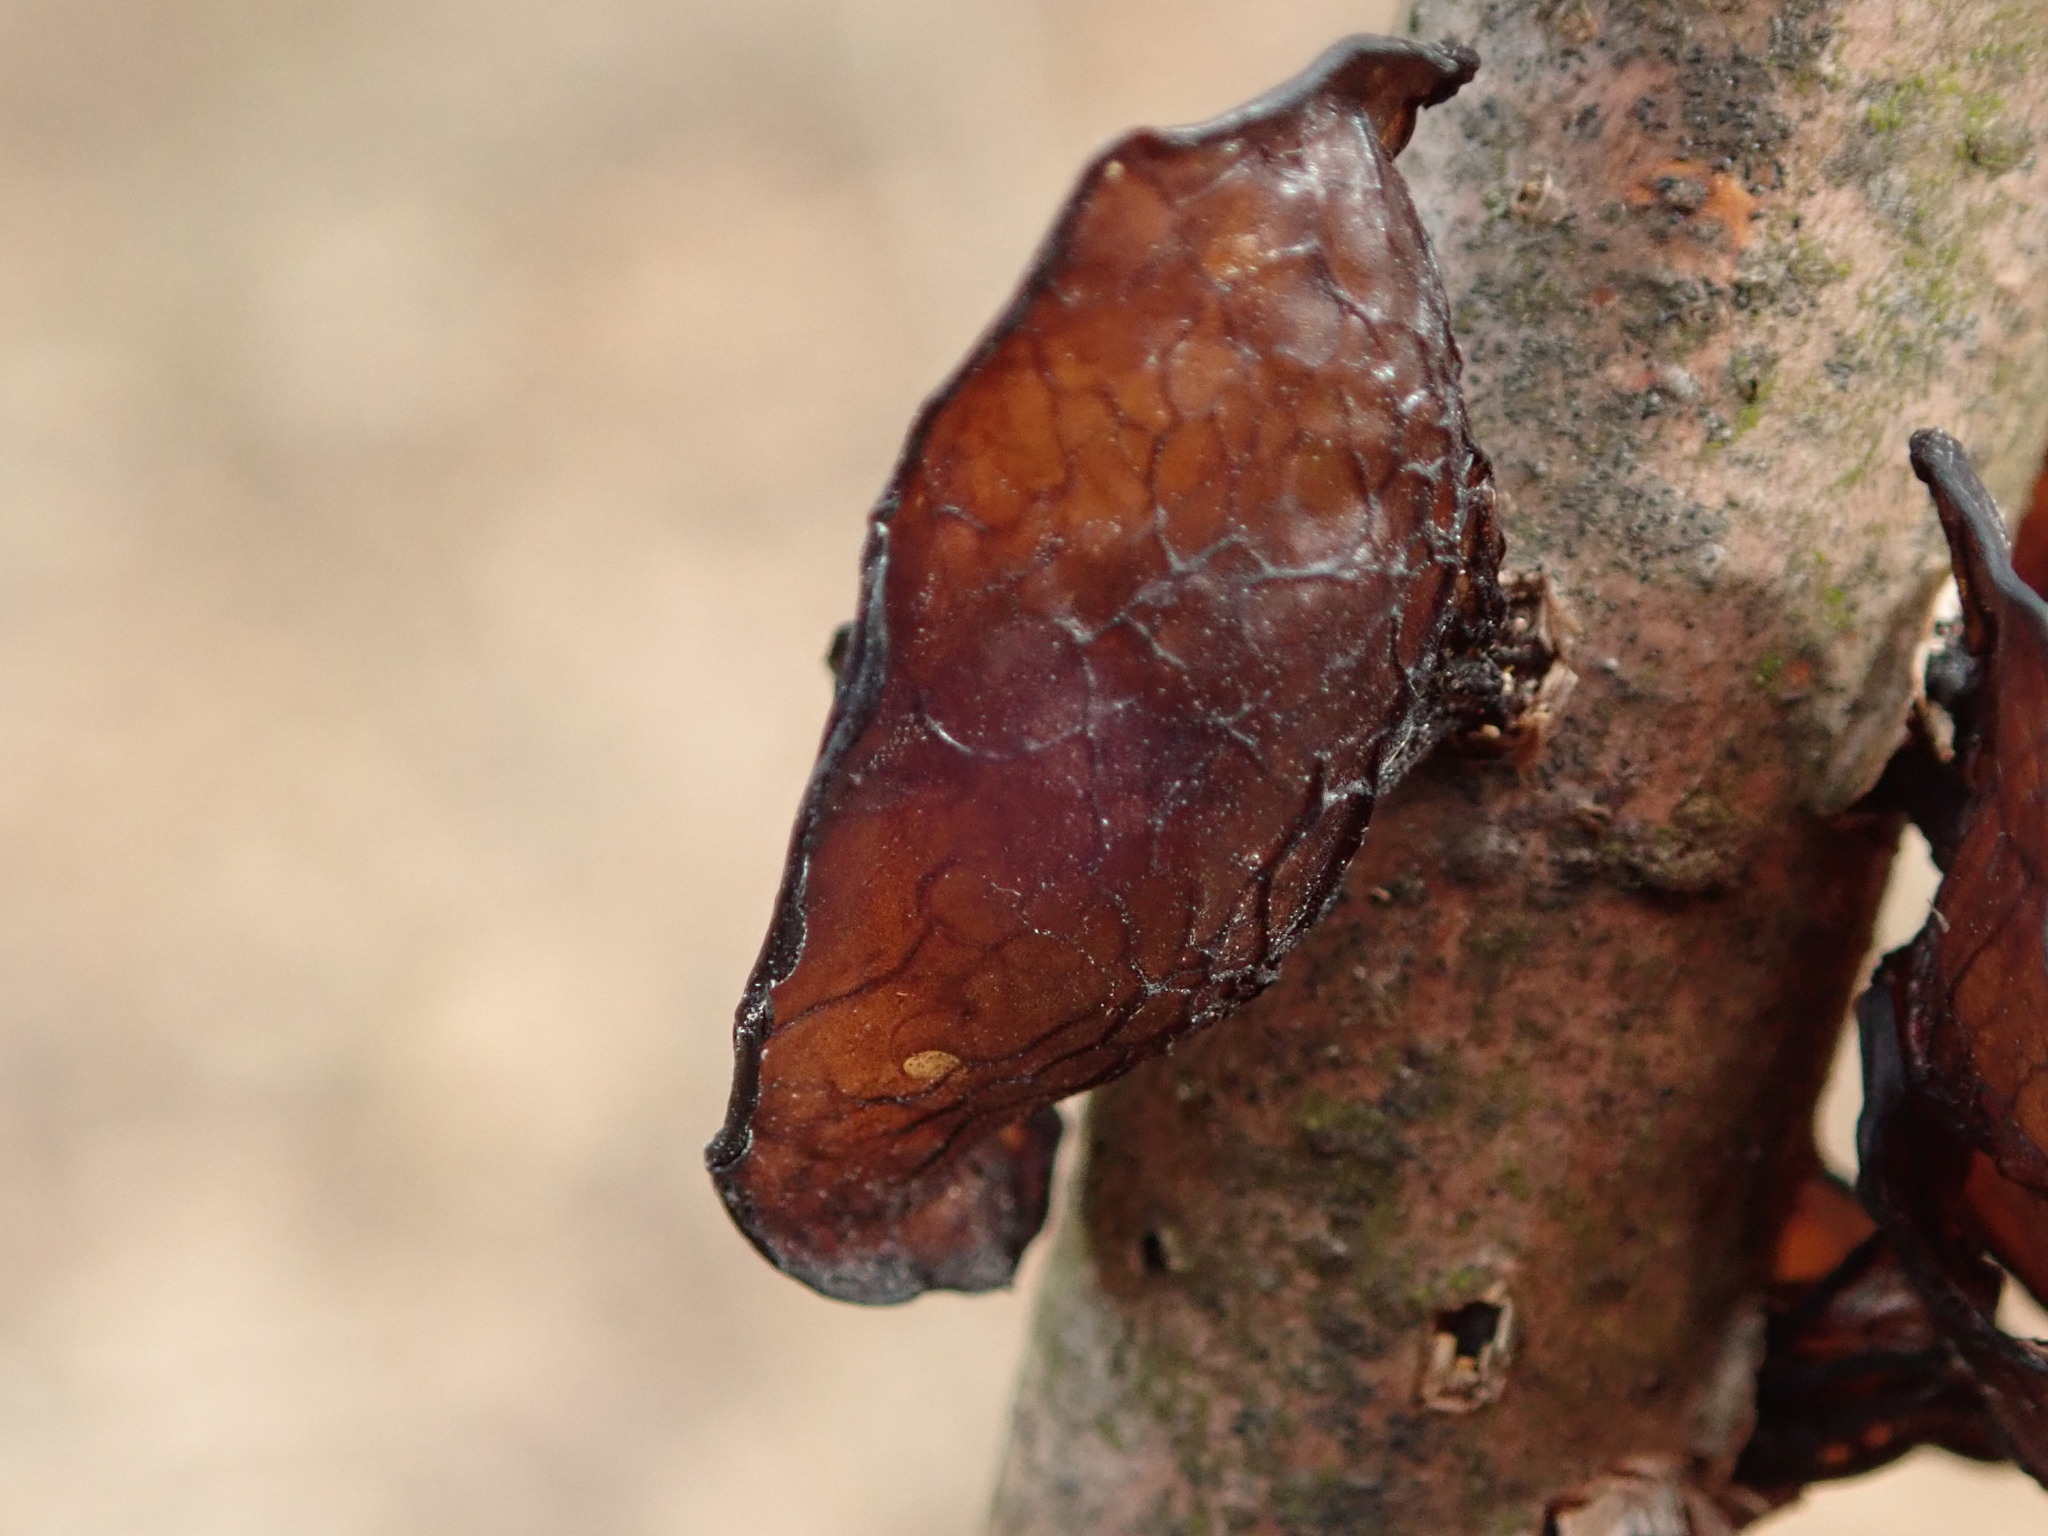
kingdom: Fungi
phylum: Basidiomycota
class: Agaricomycetes
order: Auriculariales
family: Auriculariaceae
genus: Exidia
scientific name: Exidia
